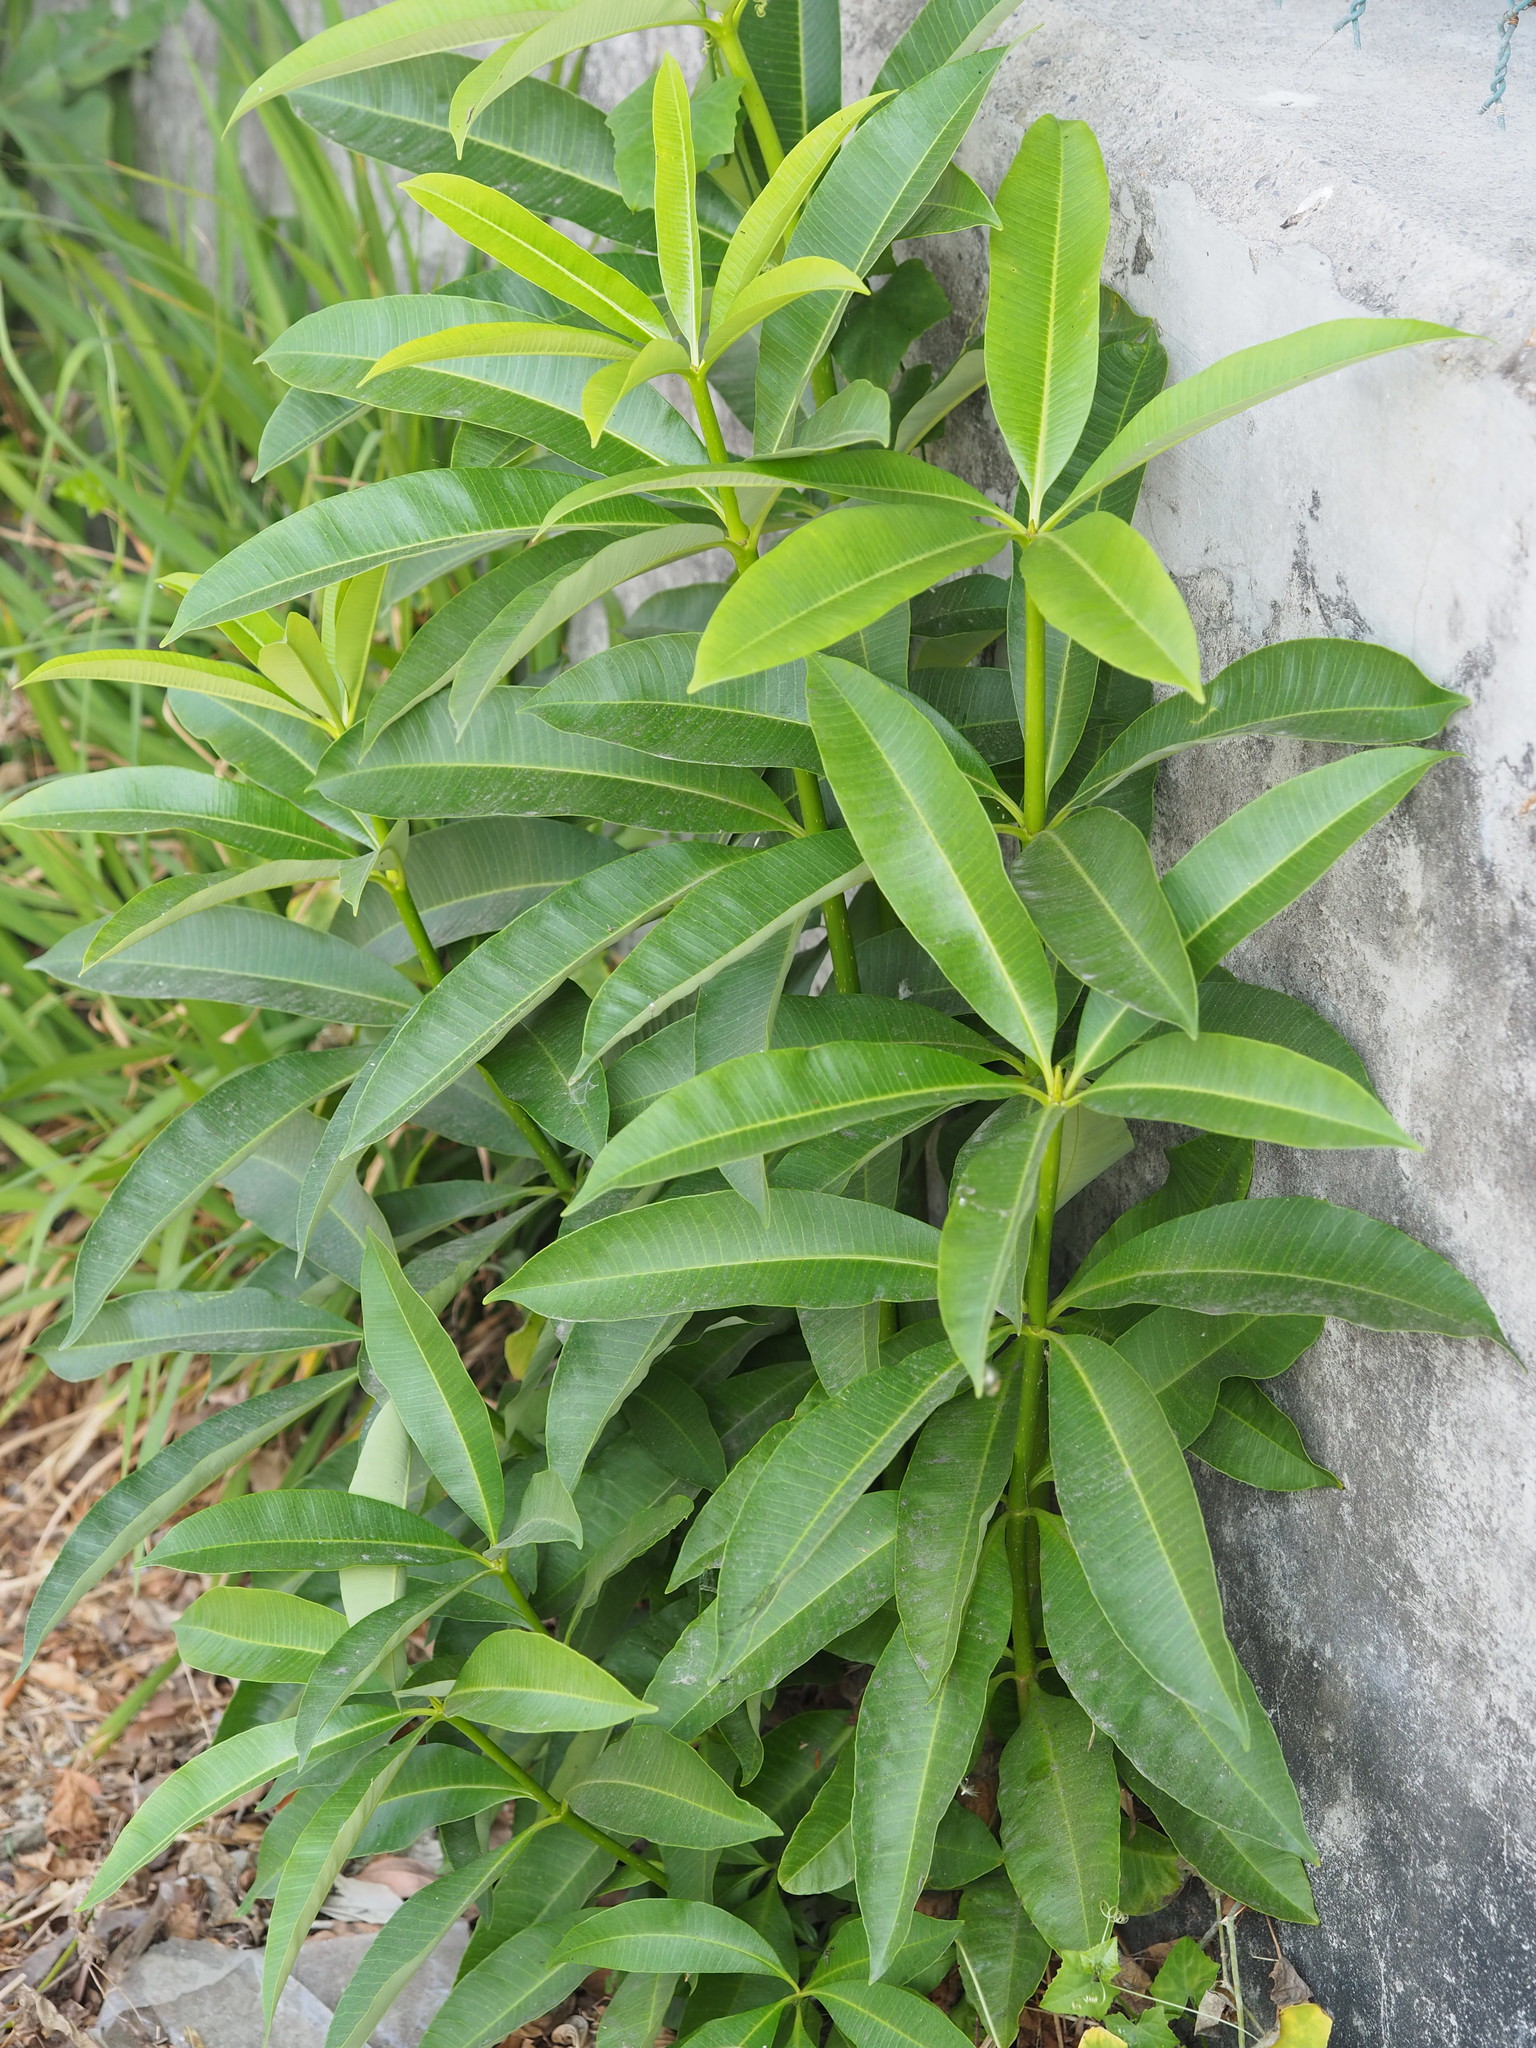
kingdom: Plantae
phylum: Tracheophyta
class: Magnoliopsida
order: Gentianales
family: Apocynaceae
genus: Alstonia
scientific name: Alstonia scholaris
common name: White cheesewood
